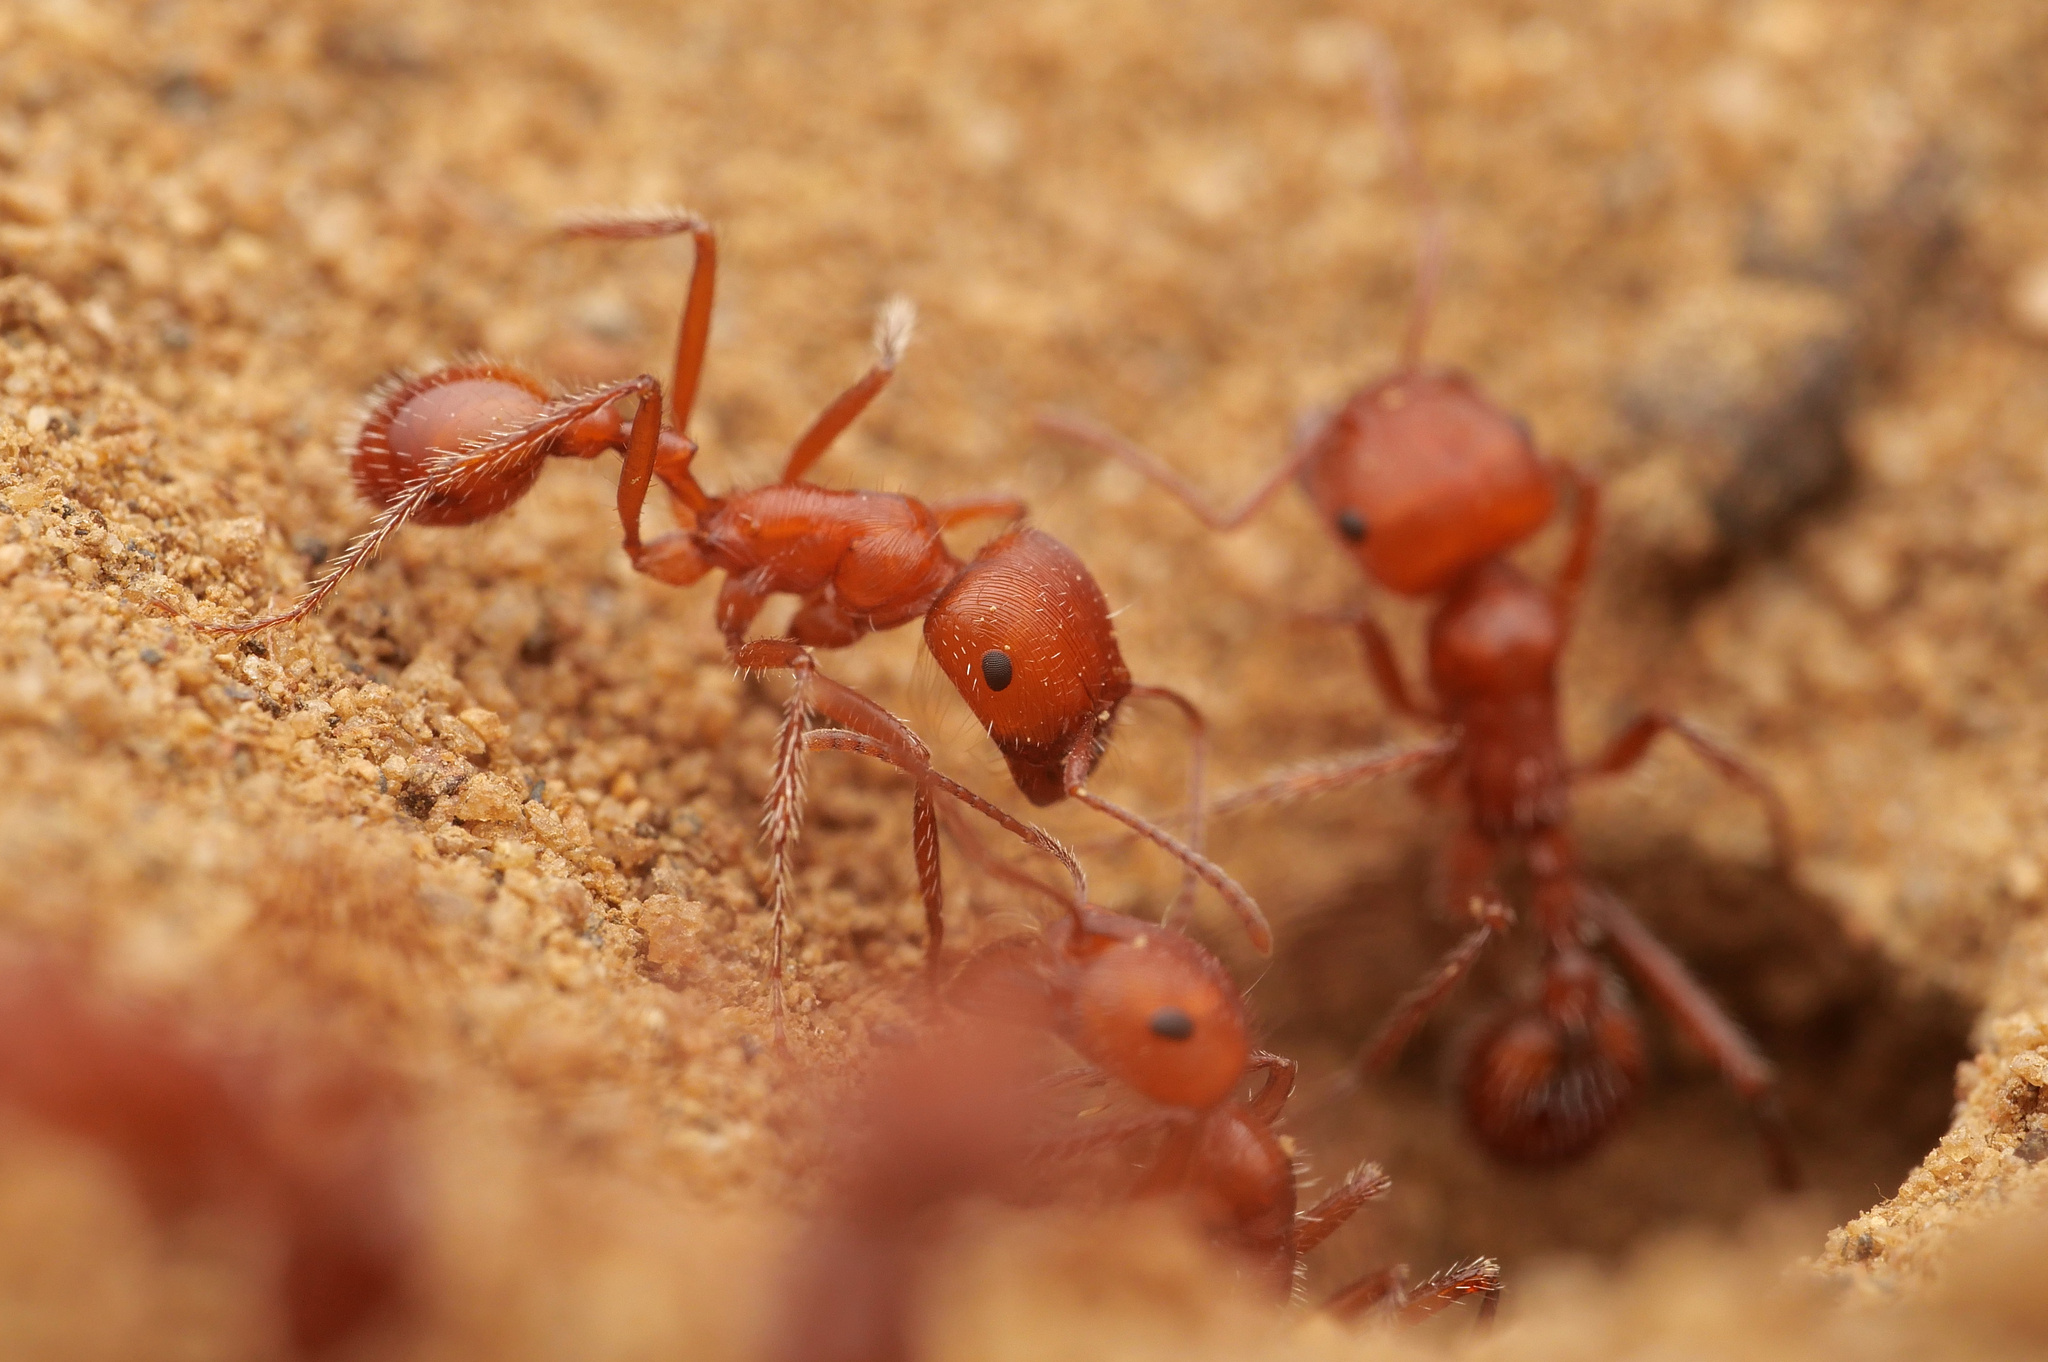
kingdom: Animalia
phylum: Arthropoda
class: Insecta
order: Hymenoptera
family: Formicidae
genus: Pogonomyrmex
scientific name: Pogonomyrmex californicus
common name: California harvester ant
